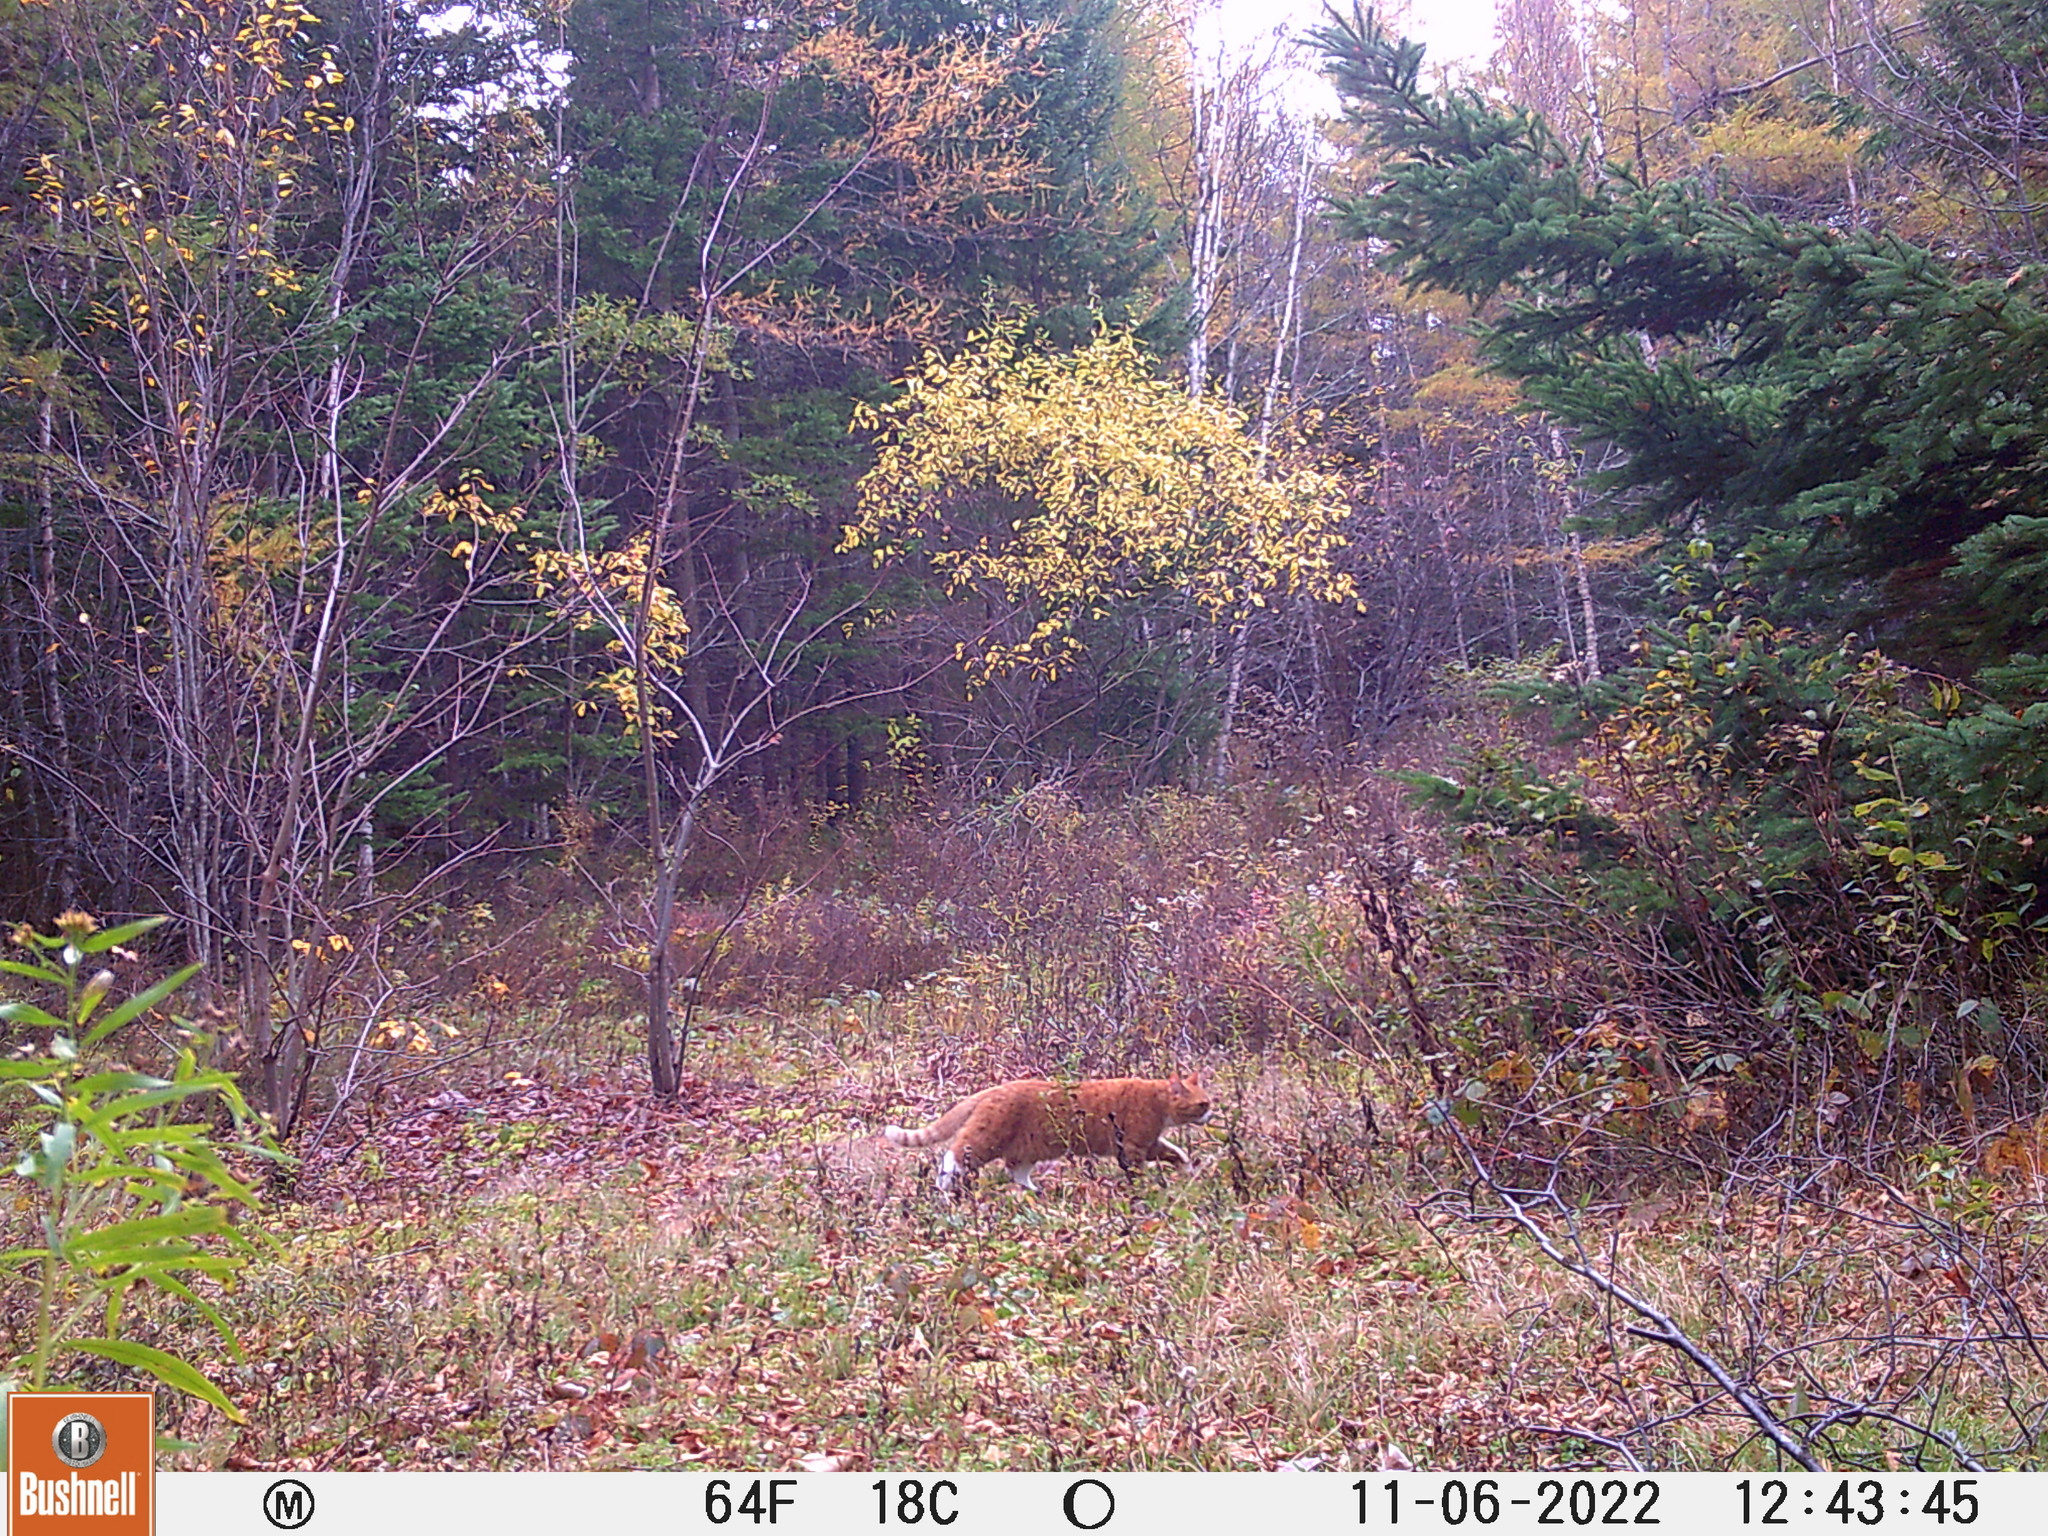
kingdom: Animalia
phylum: Chordata
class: Mammalia
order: Carnivora
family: Felidae
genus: Felis
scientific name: Felis catus
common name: Domestic cat
